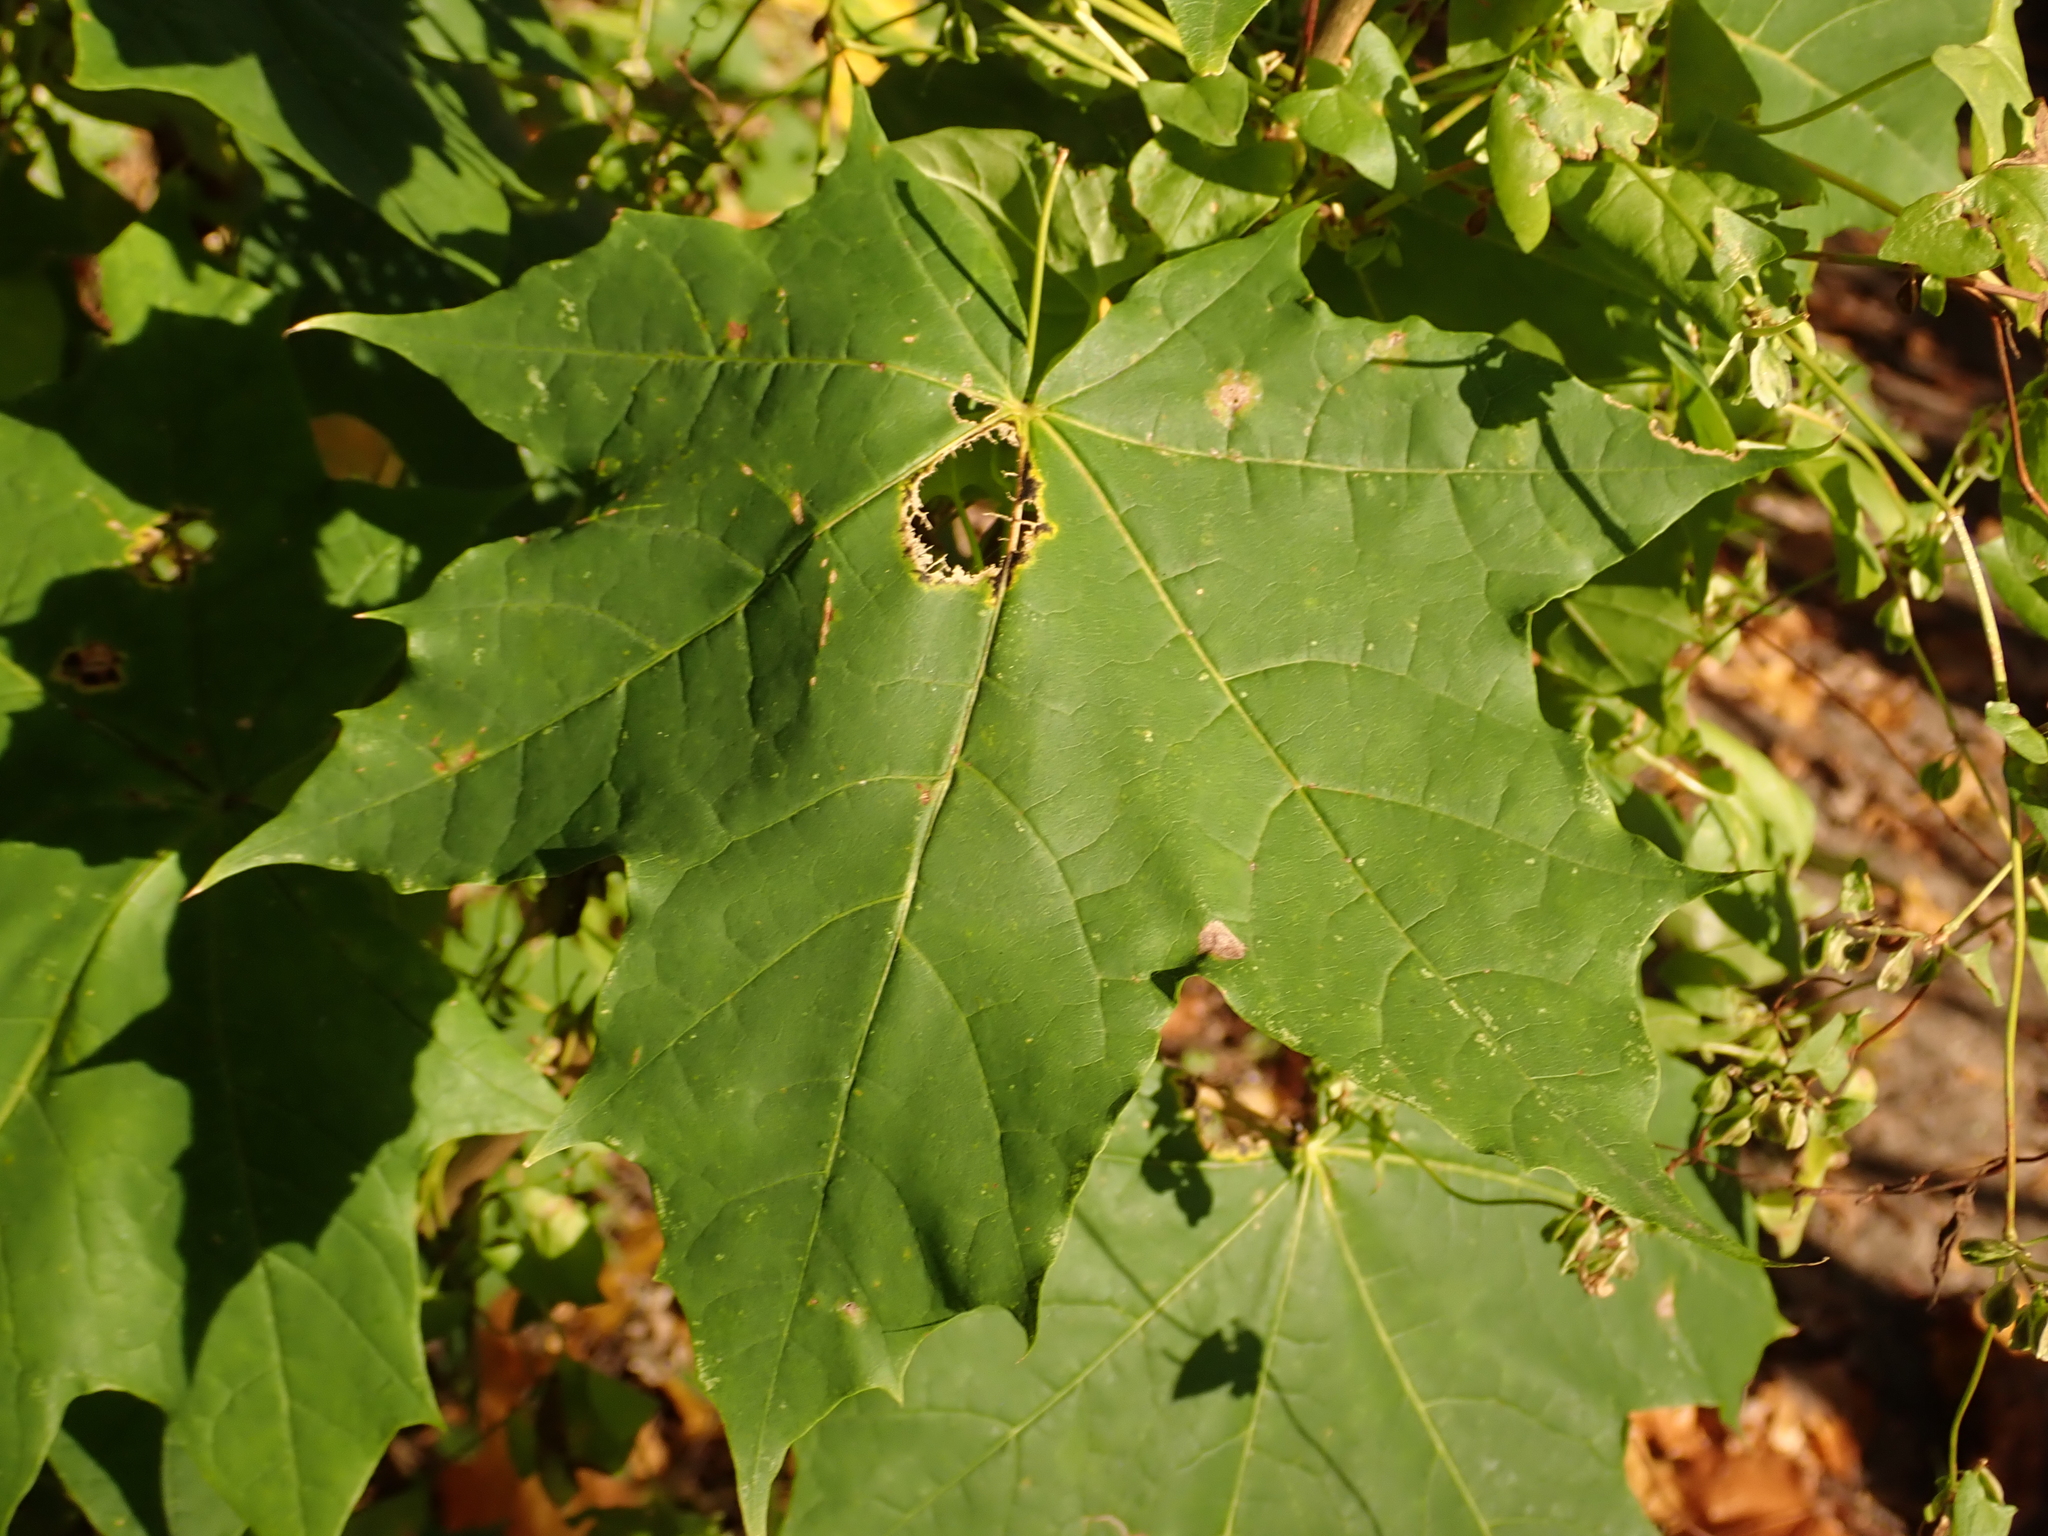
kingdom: Plantae
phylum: Tracheophyta
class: Magnoliopsida
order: Sapindales
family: Sapindaceae
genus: Acer
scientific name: Acer platanoides
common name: Norway maple
